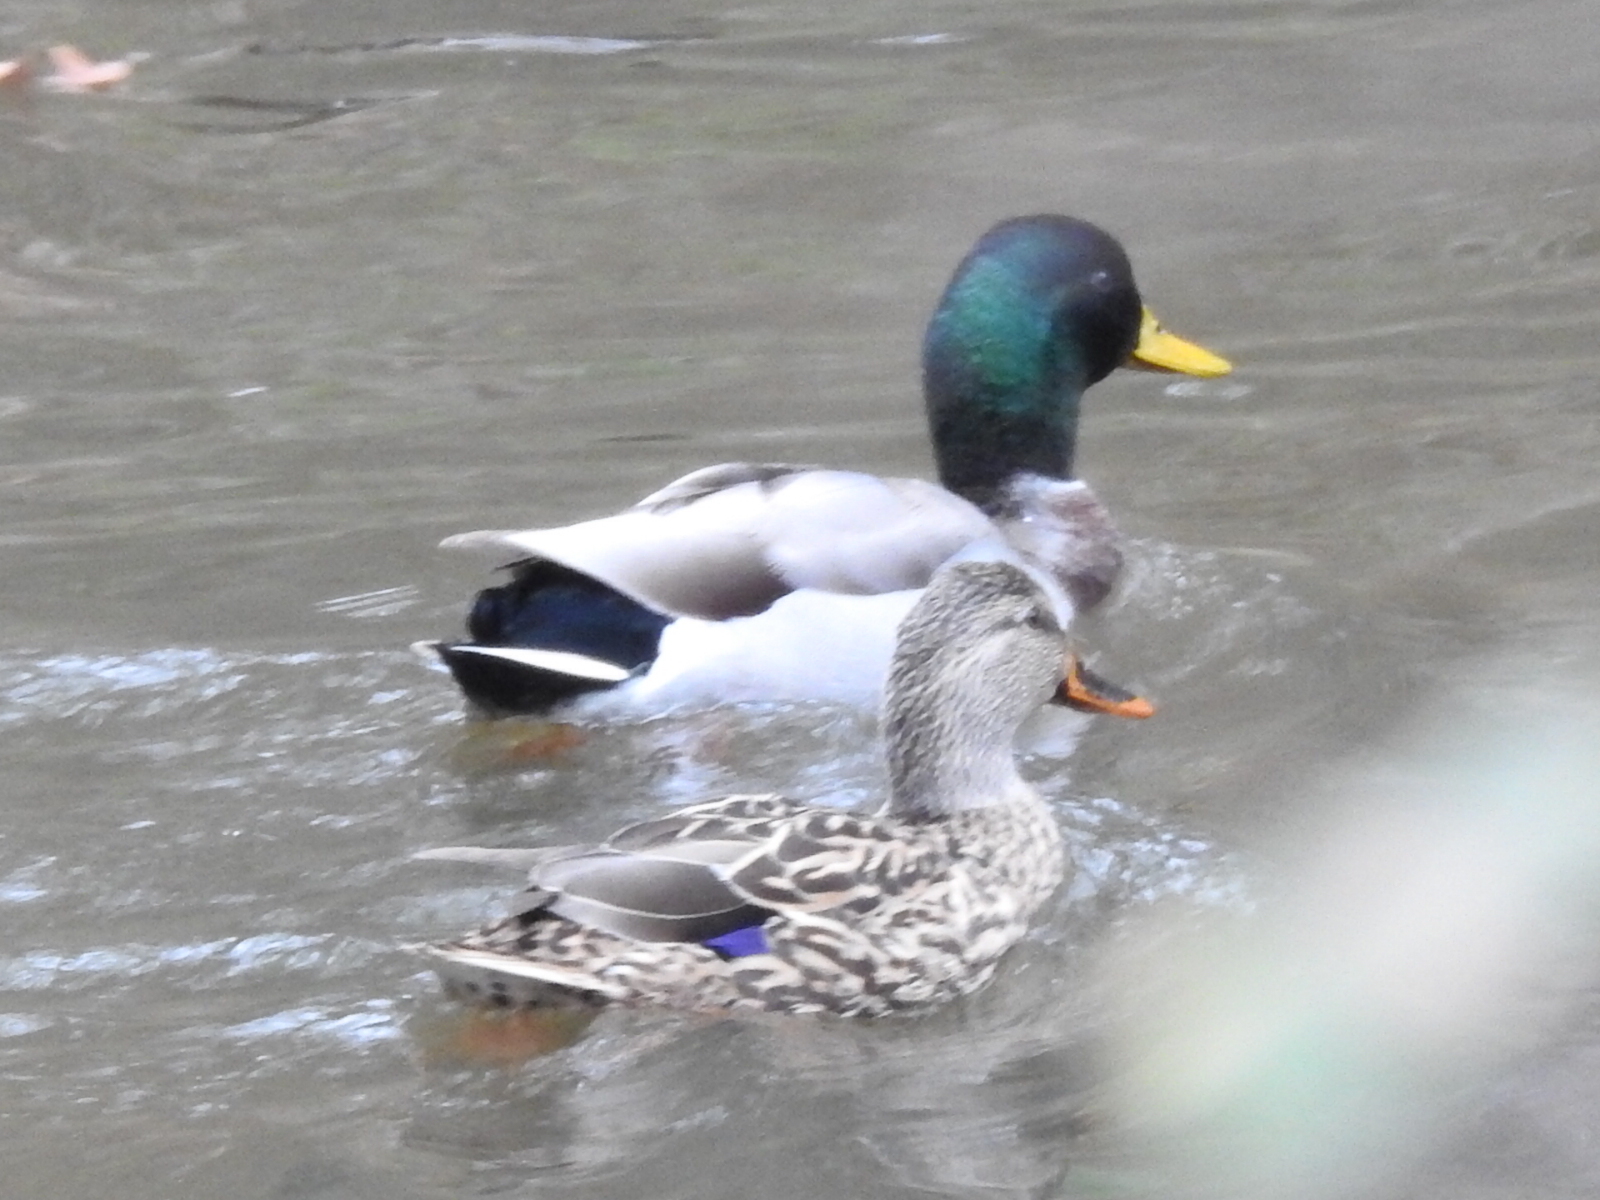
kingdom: Animalia
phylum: Chordata
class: Aves
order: Anseriformes
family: Anatidae
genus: Anas
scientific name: Anas platyrhynchos
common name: Mallard
